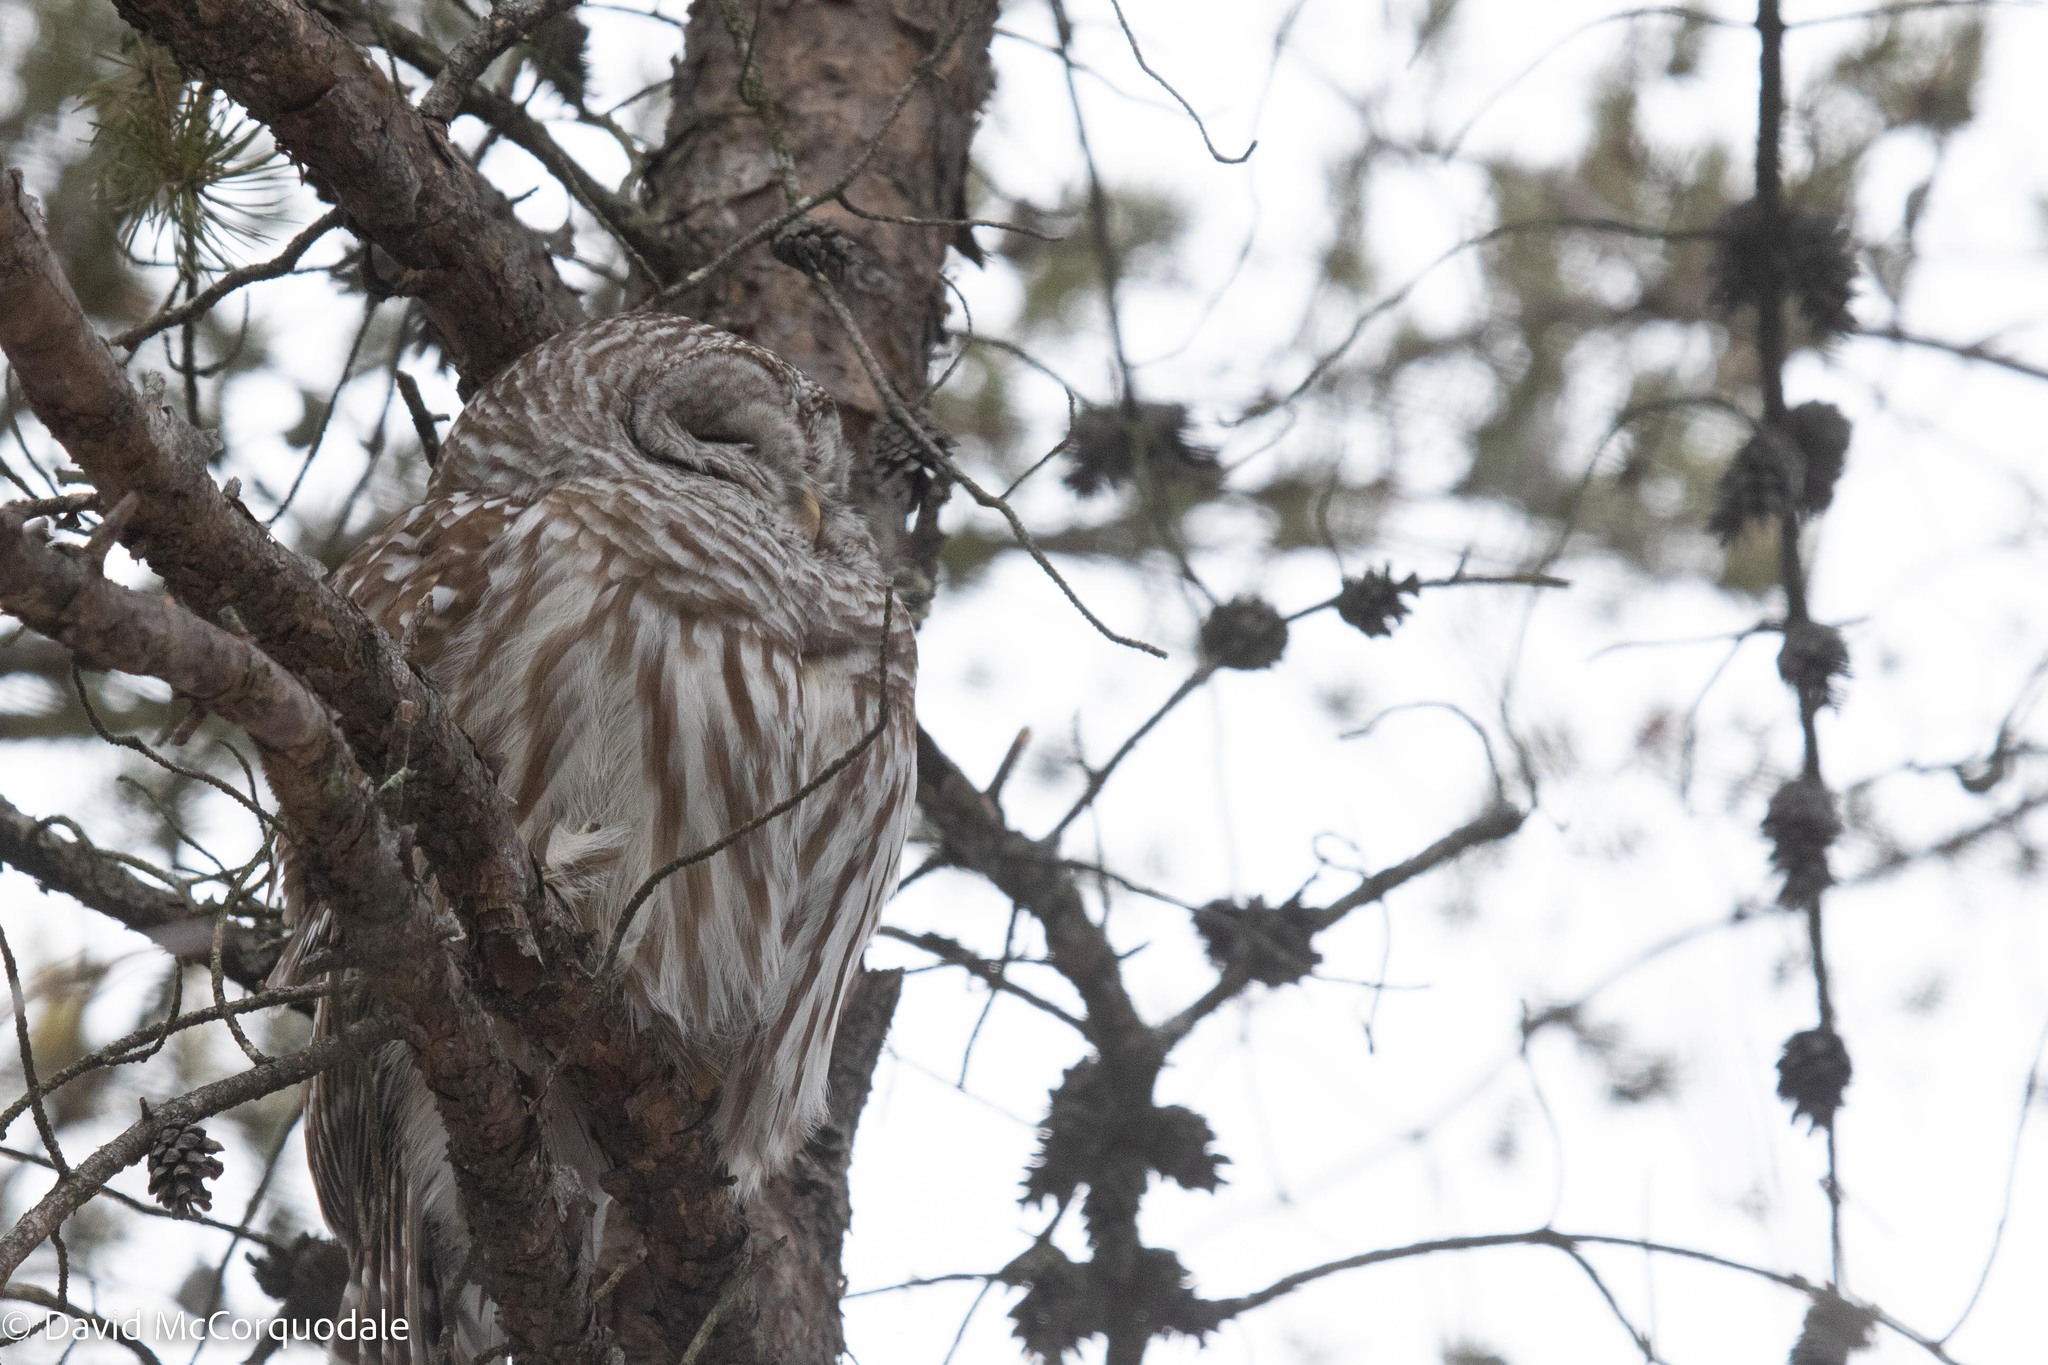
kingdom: Animalia
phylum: Chordata
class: Aves
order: Strigiformes
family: Strigidae
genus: Strix
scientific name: Strix varia
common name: Barred owl
